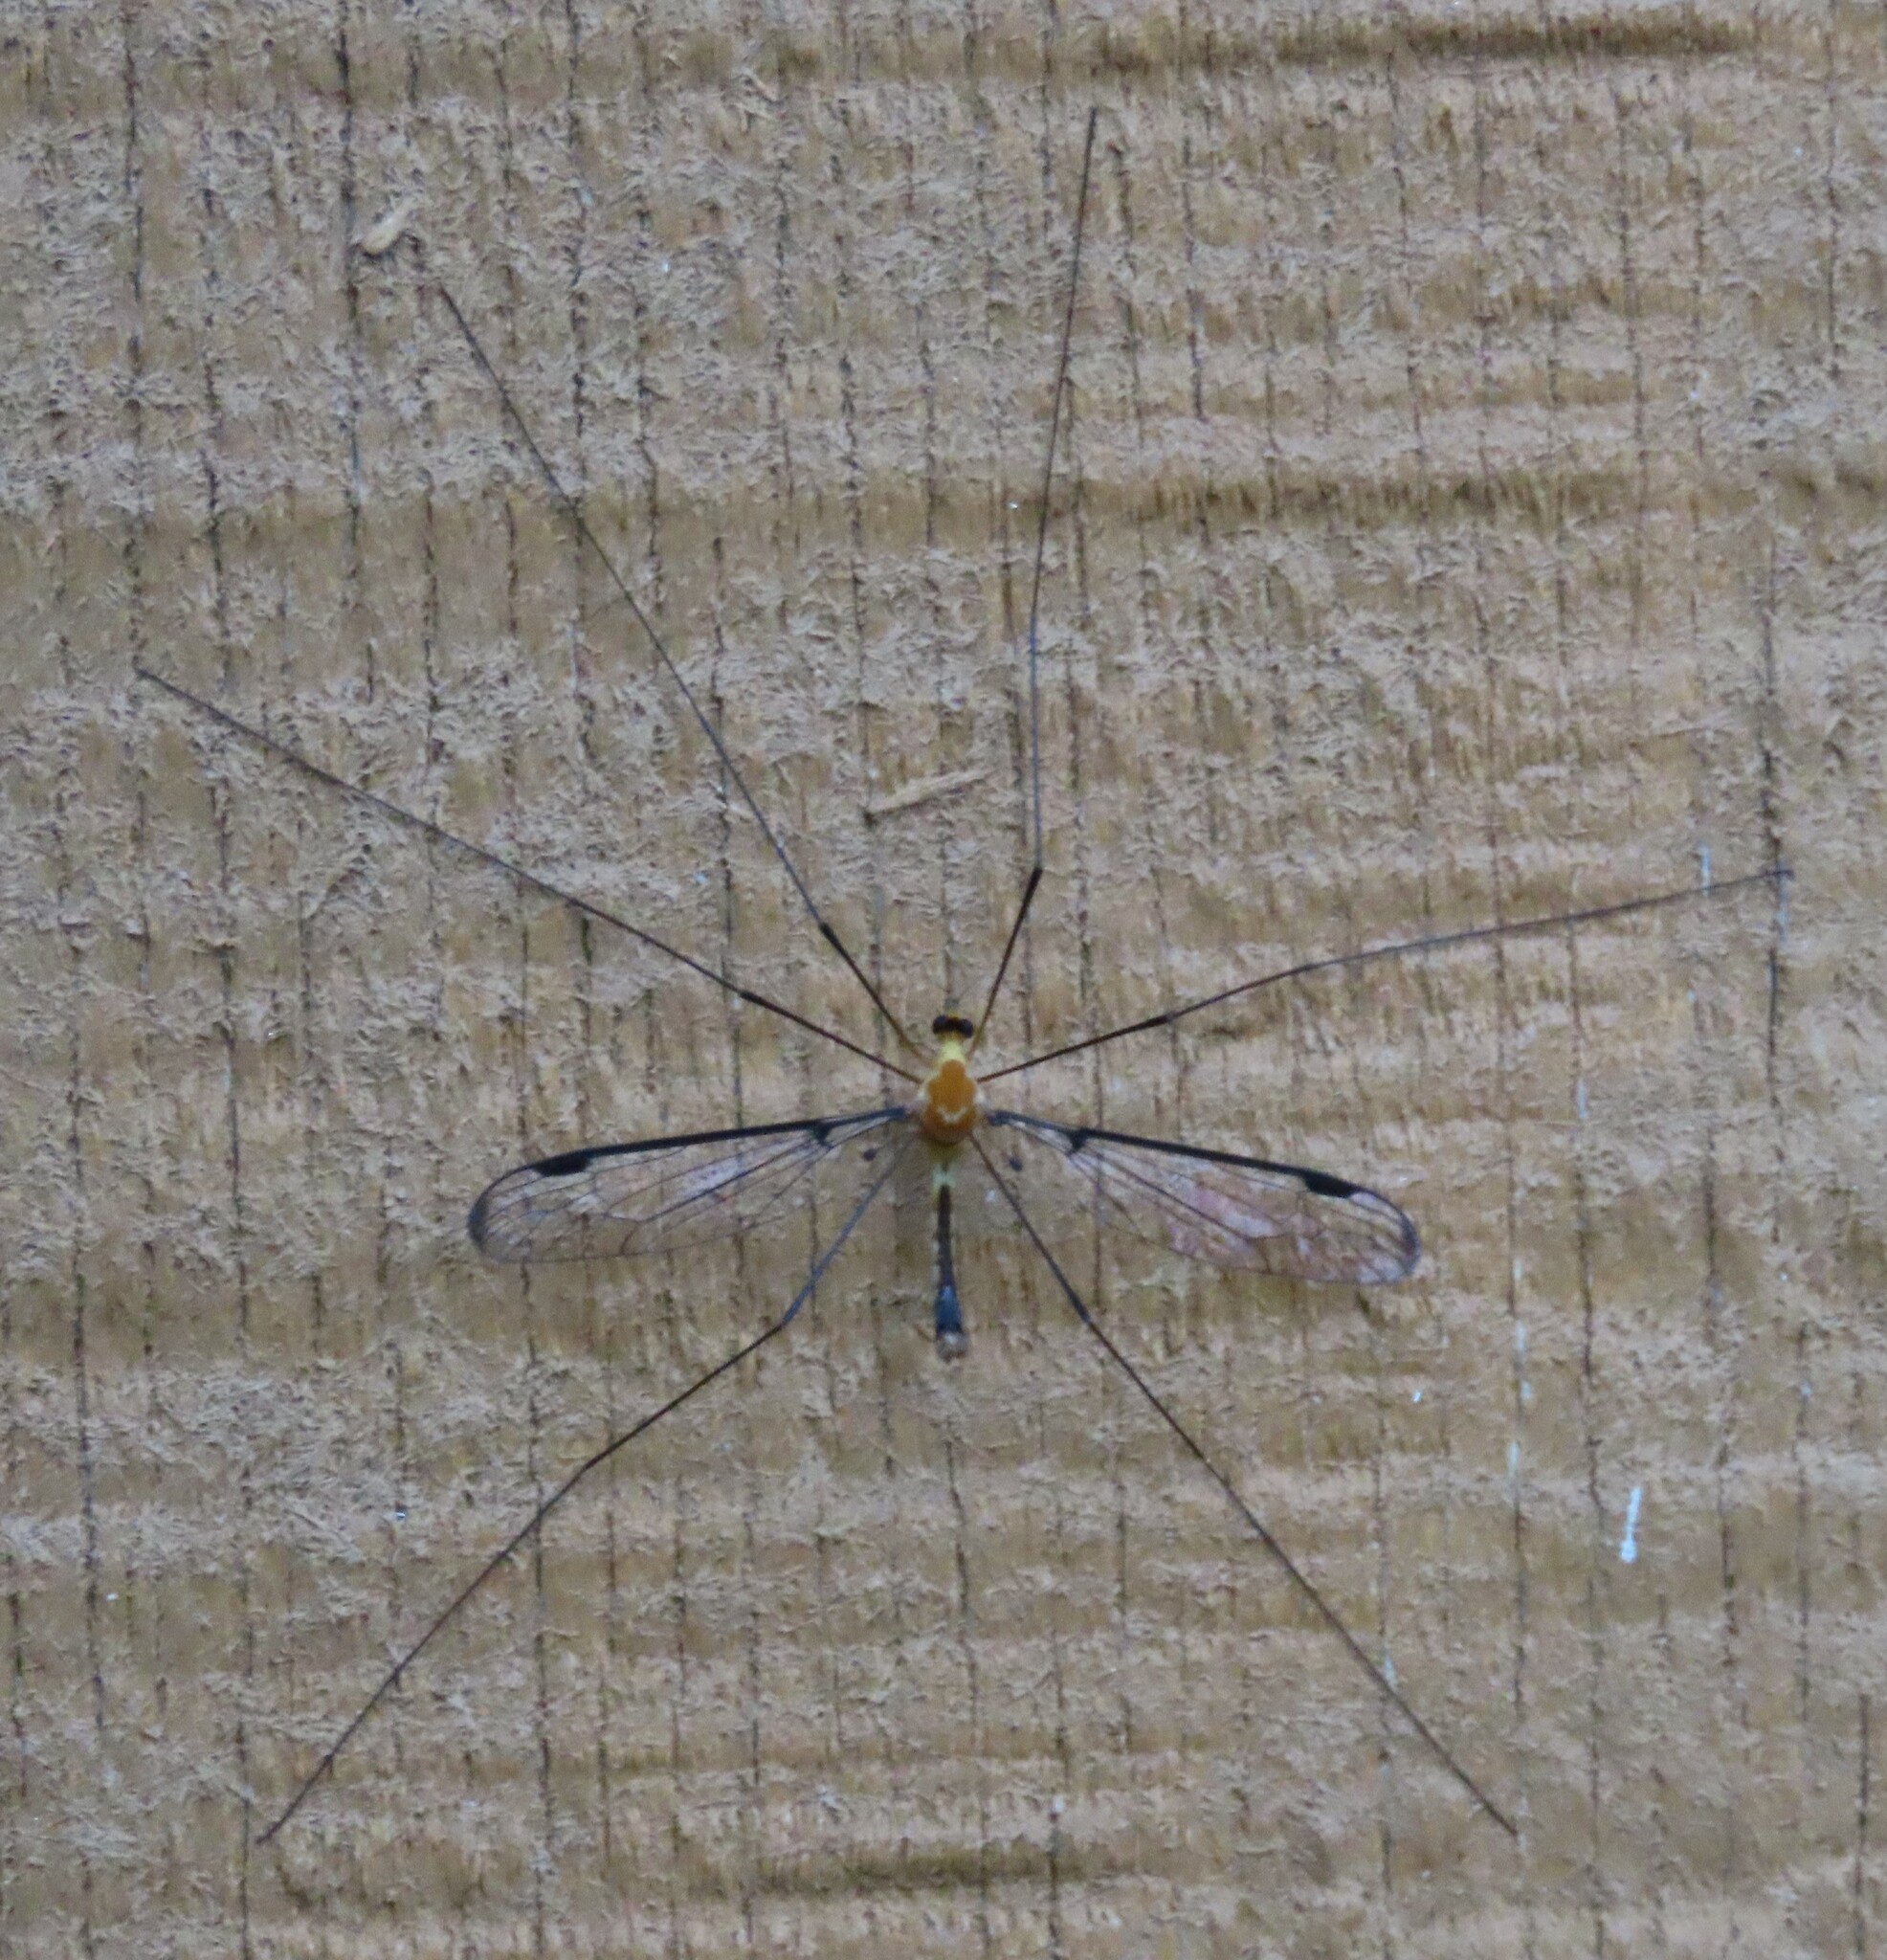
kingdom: Animalia
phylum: Arthropoda
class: Insecta
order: Diptera
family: Tipulidae
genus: Aurotipula
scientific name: Aurotipula
